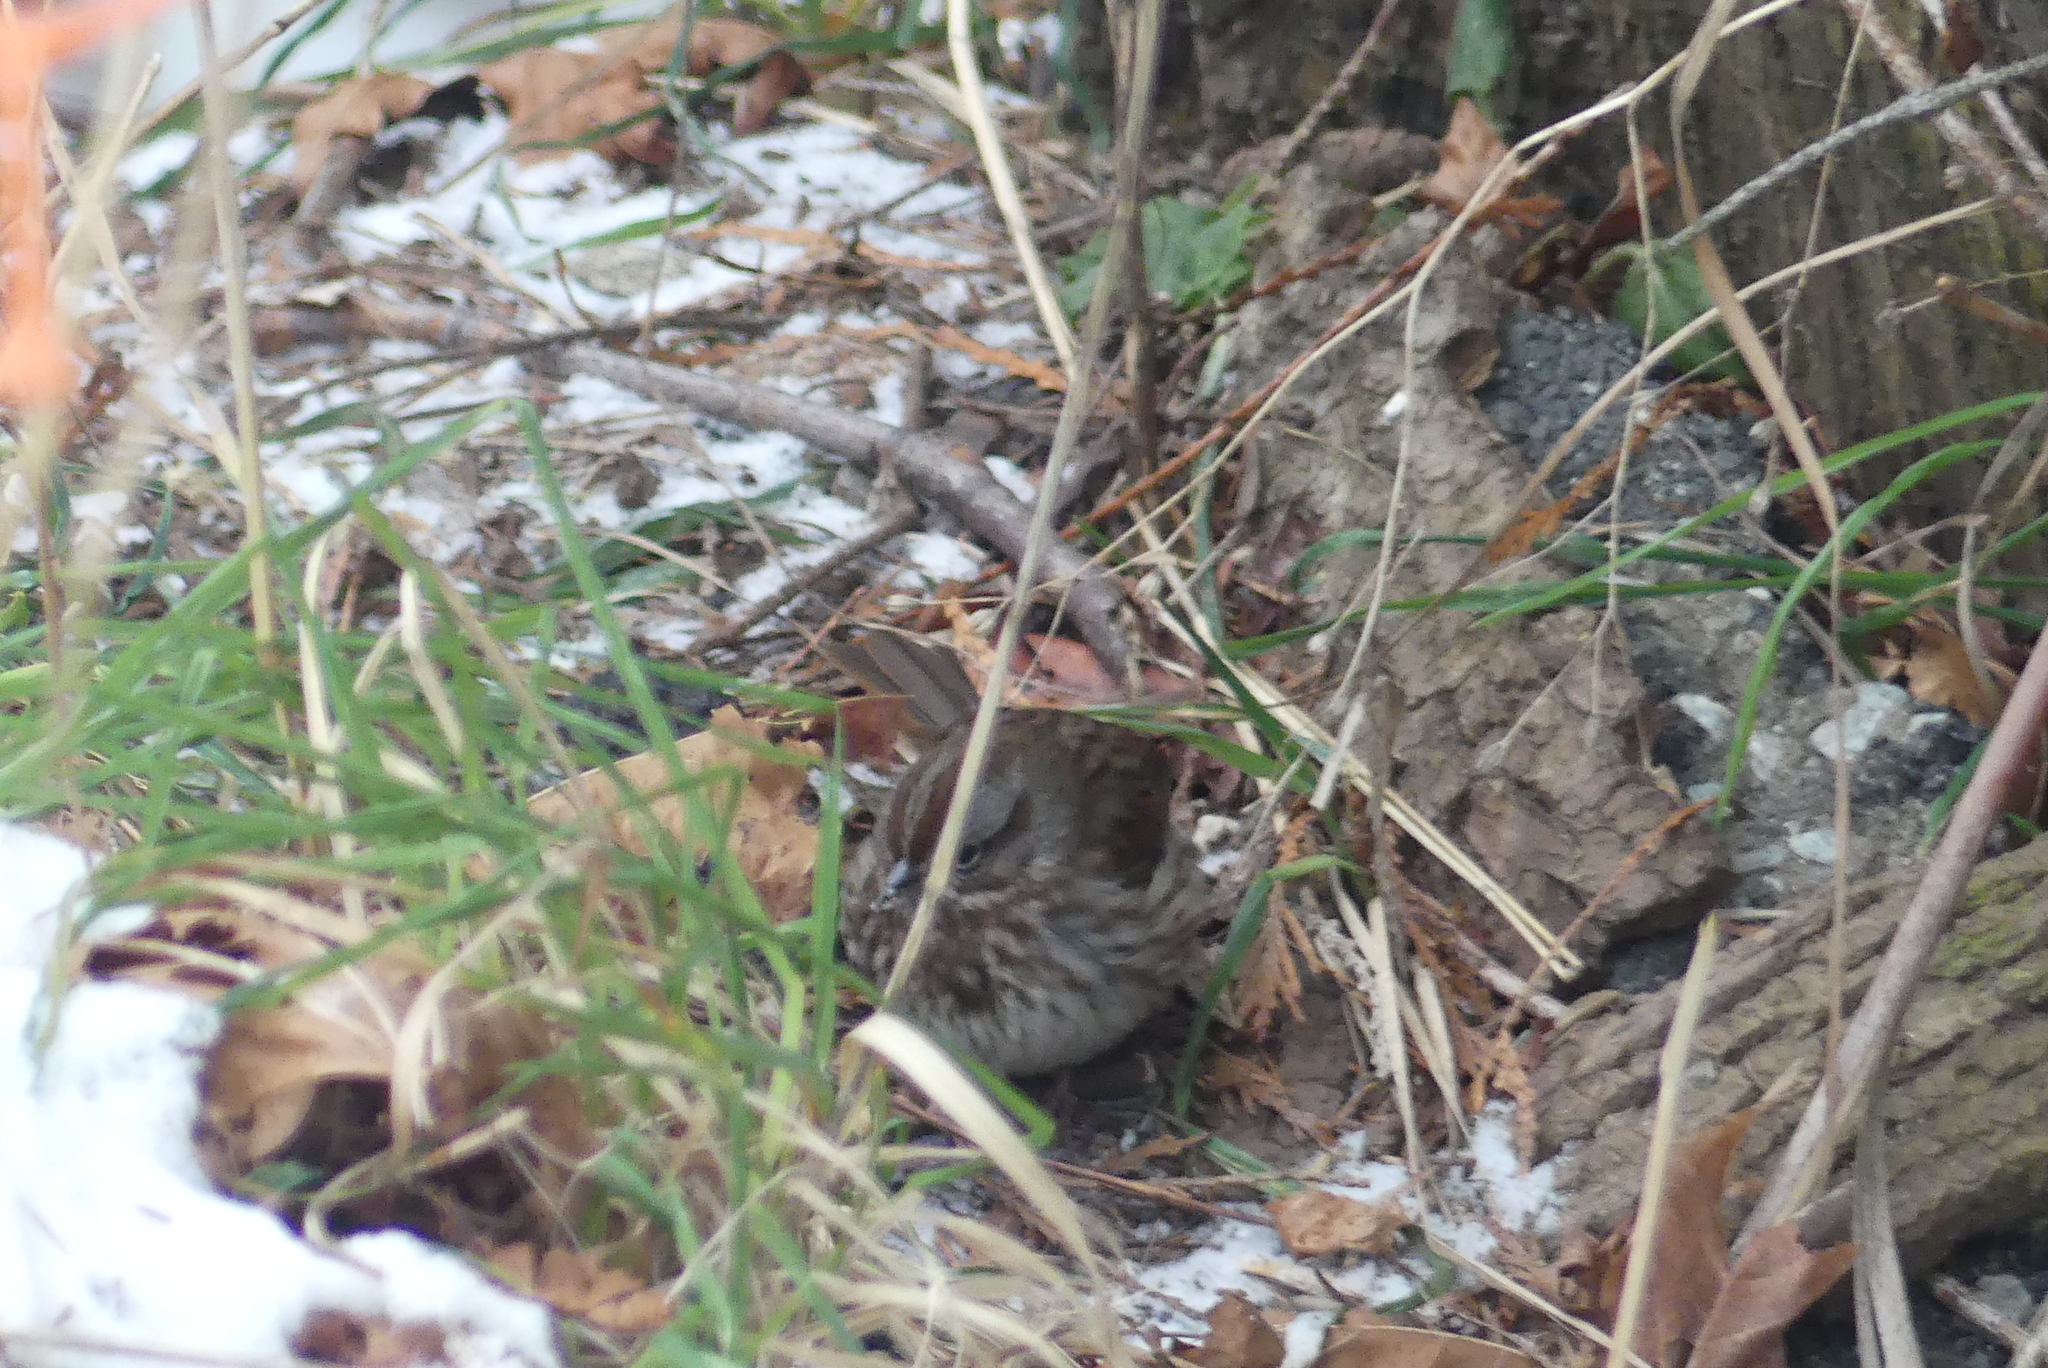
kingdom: Animalia
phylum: Chordata
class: Aves
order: Passeriformes
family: Passerellidae
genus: Melospiza
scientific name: Melospiza melodia
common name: Song sparrow
